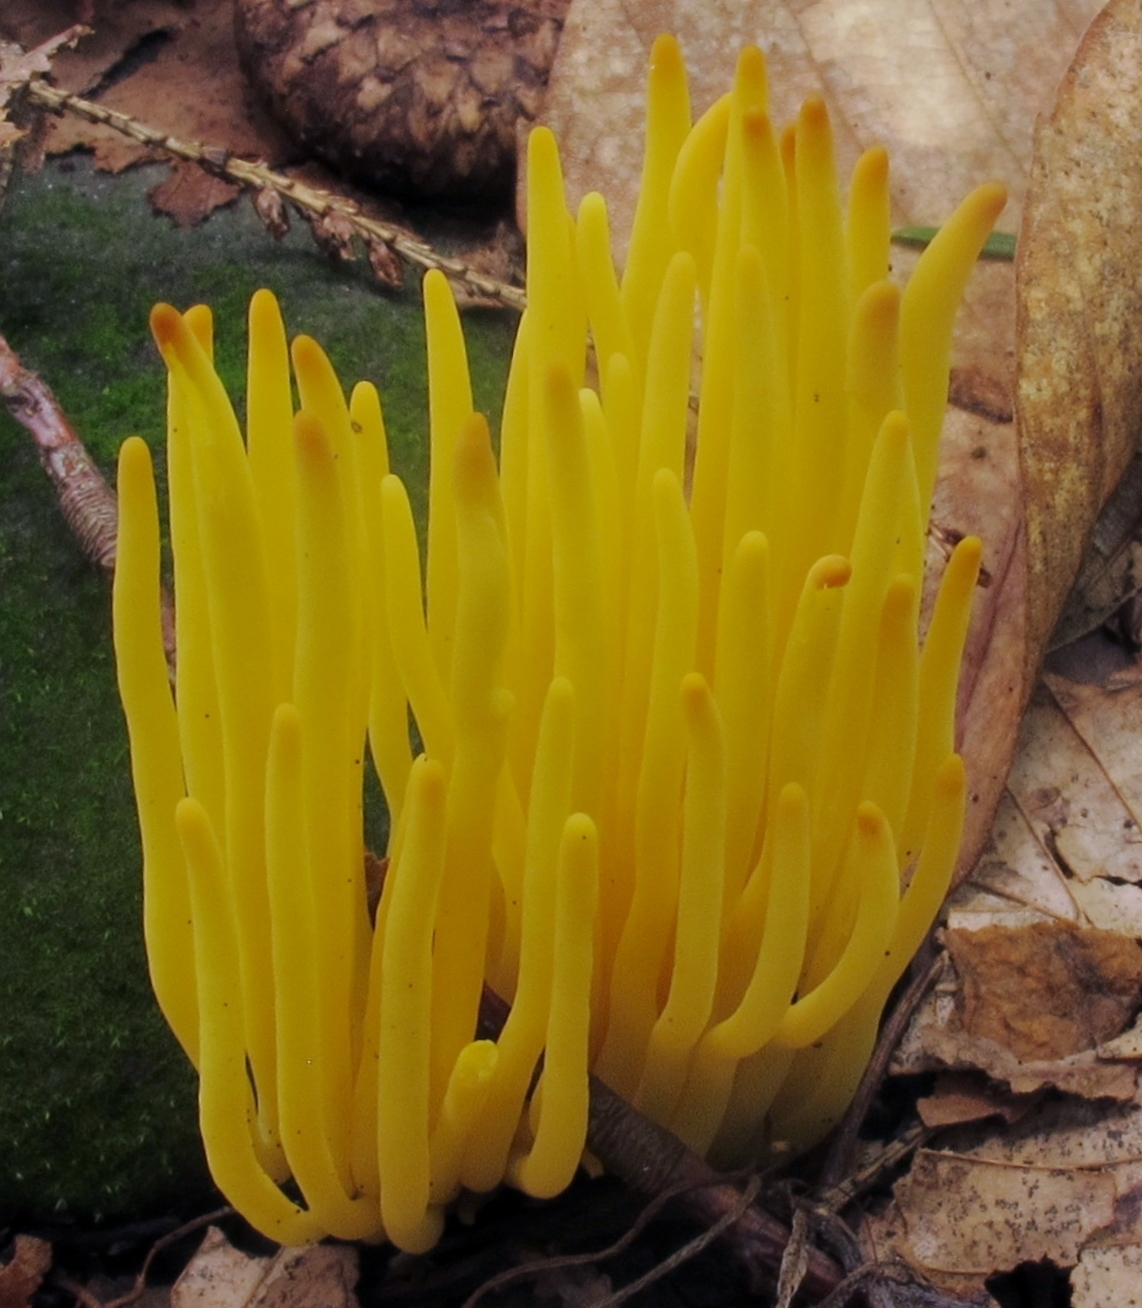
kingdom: Fungi
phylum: Basidiomycota
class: Agaricomycetes
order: Agaricales
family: Clavariaceae
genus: Clavulinopsis
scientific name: Clavulinopsis fusiformis
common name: Golden spindles
